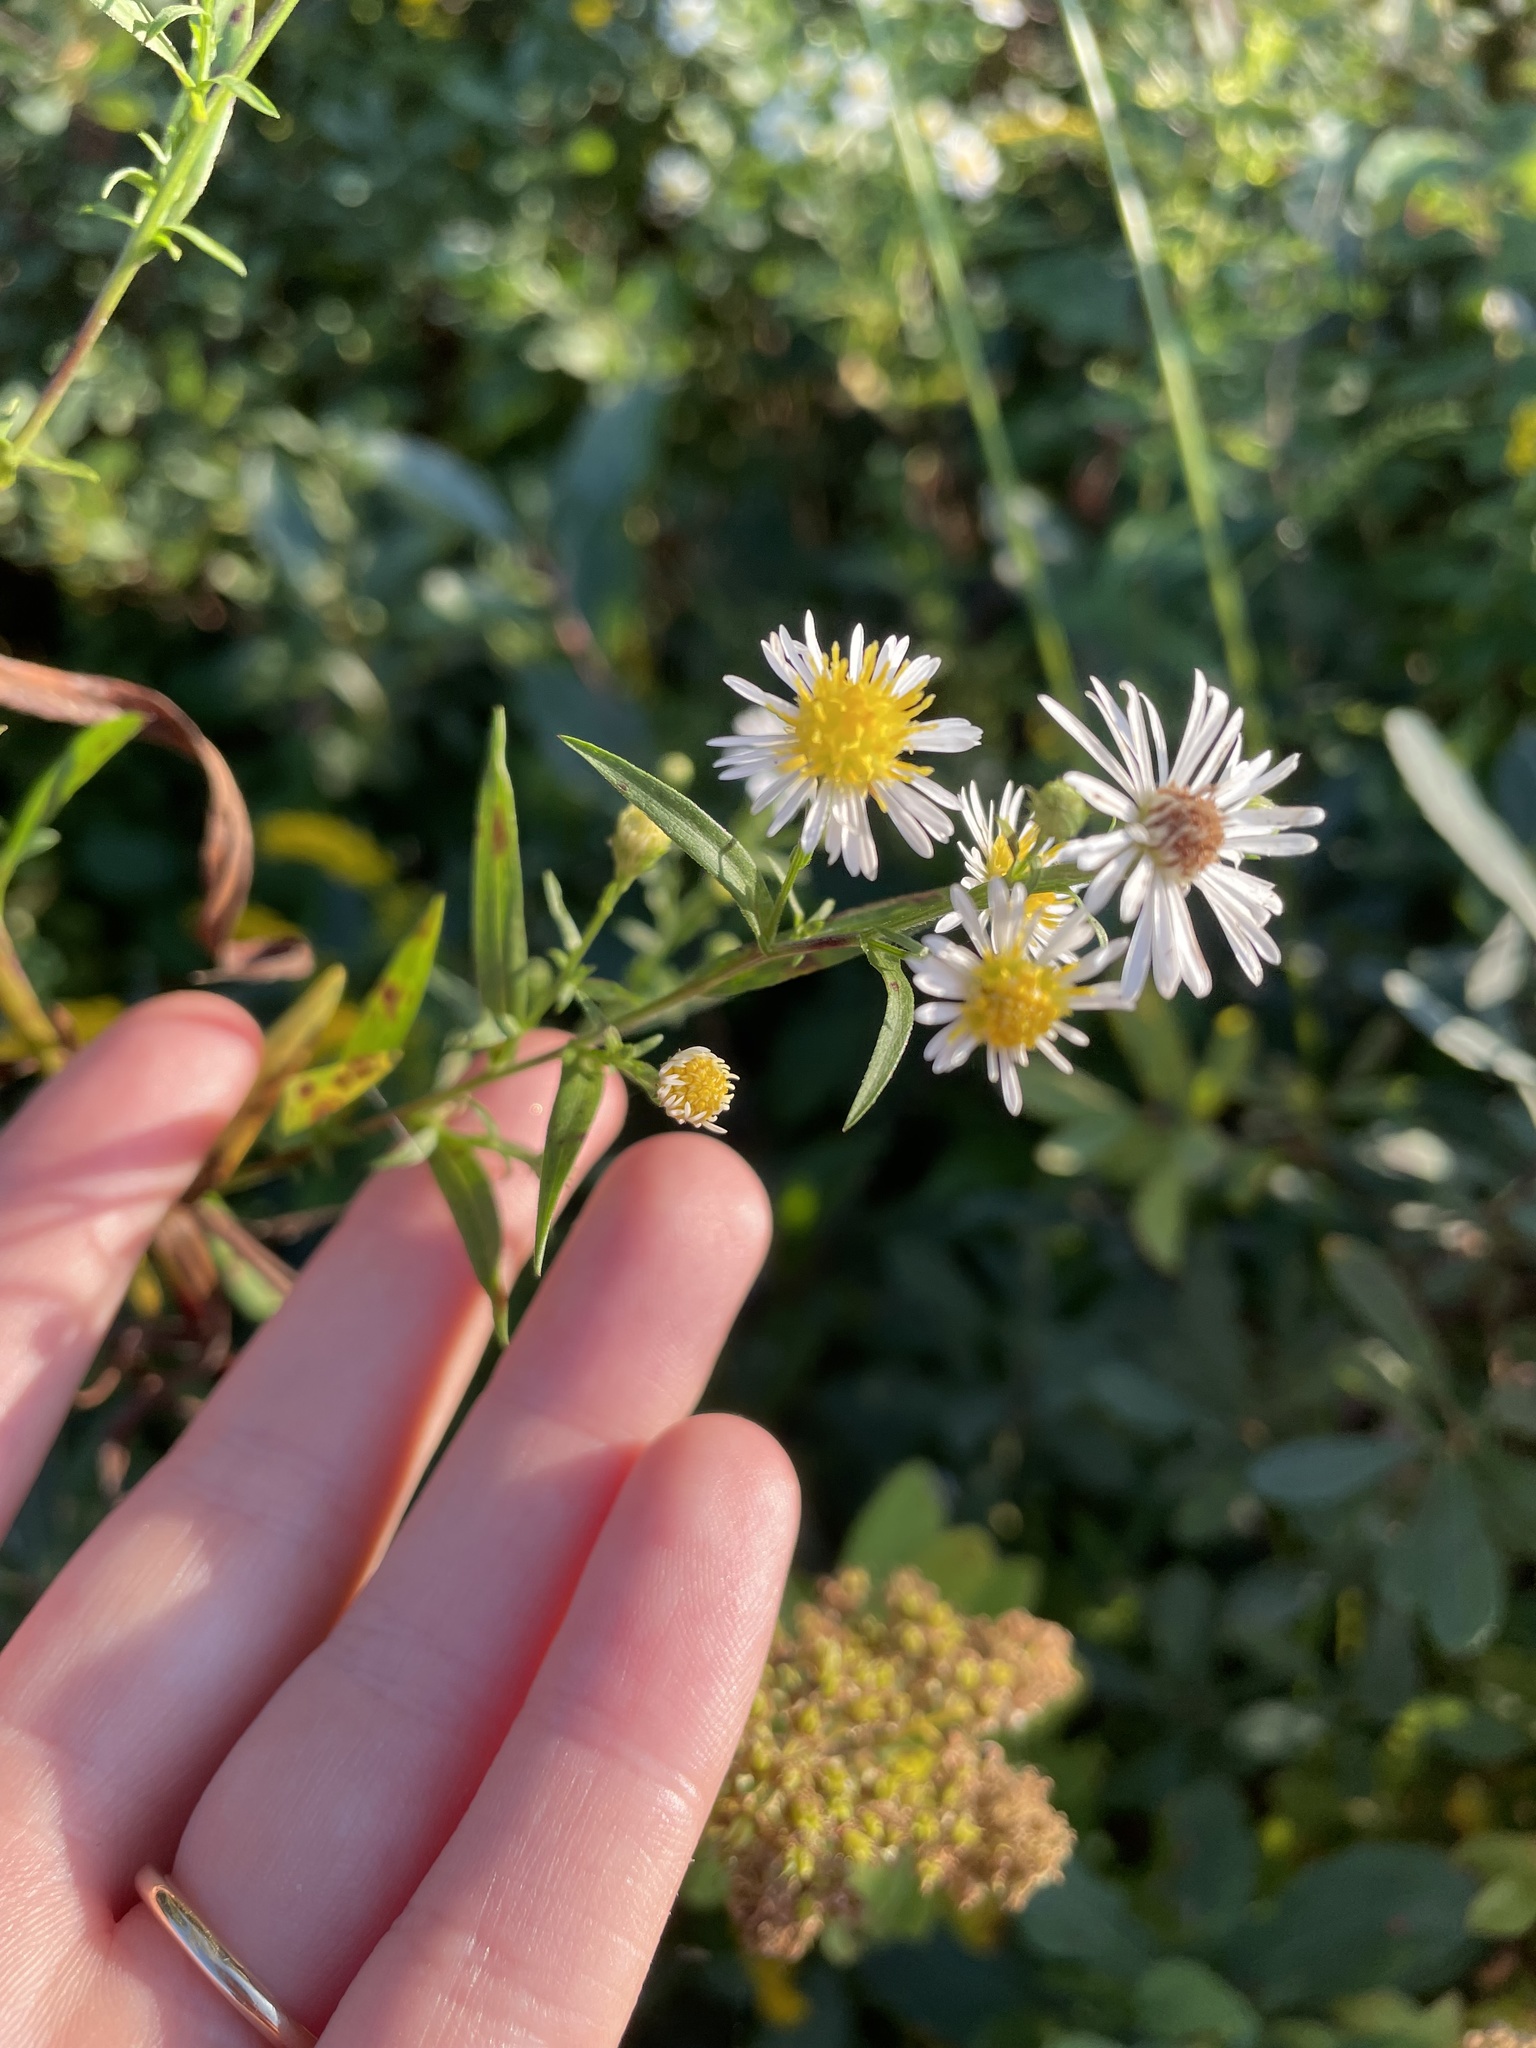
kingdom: Plantae
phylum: Tracheophyta
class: Magnoliopsida
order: Asterales
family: Asteraceae
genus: Symphyotrichum
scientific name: Symphyotrichum lanceolatum
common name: Panicled aster
